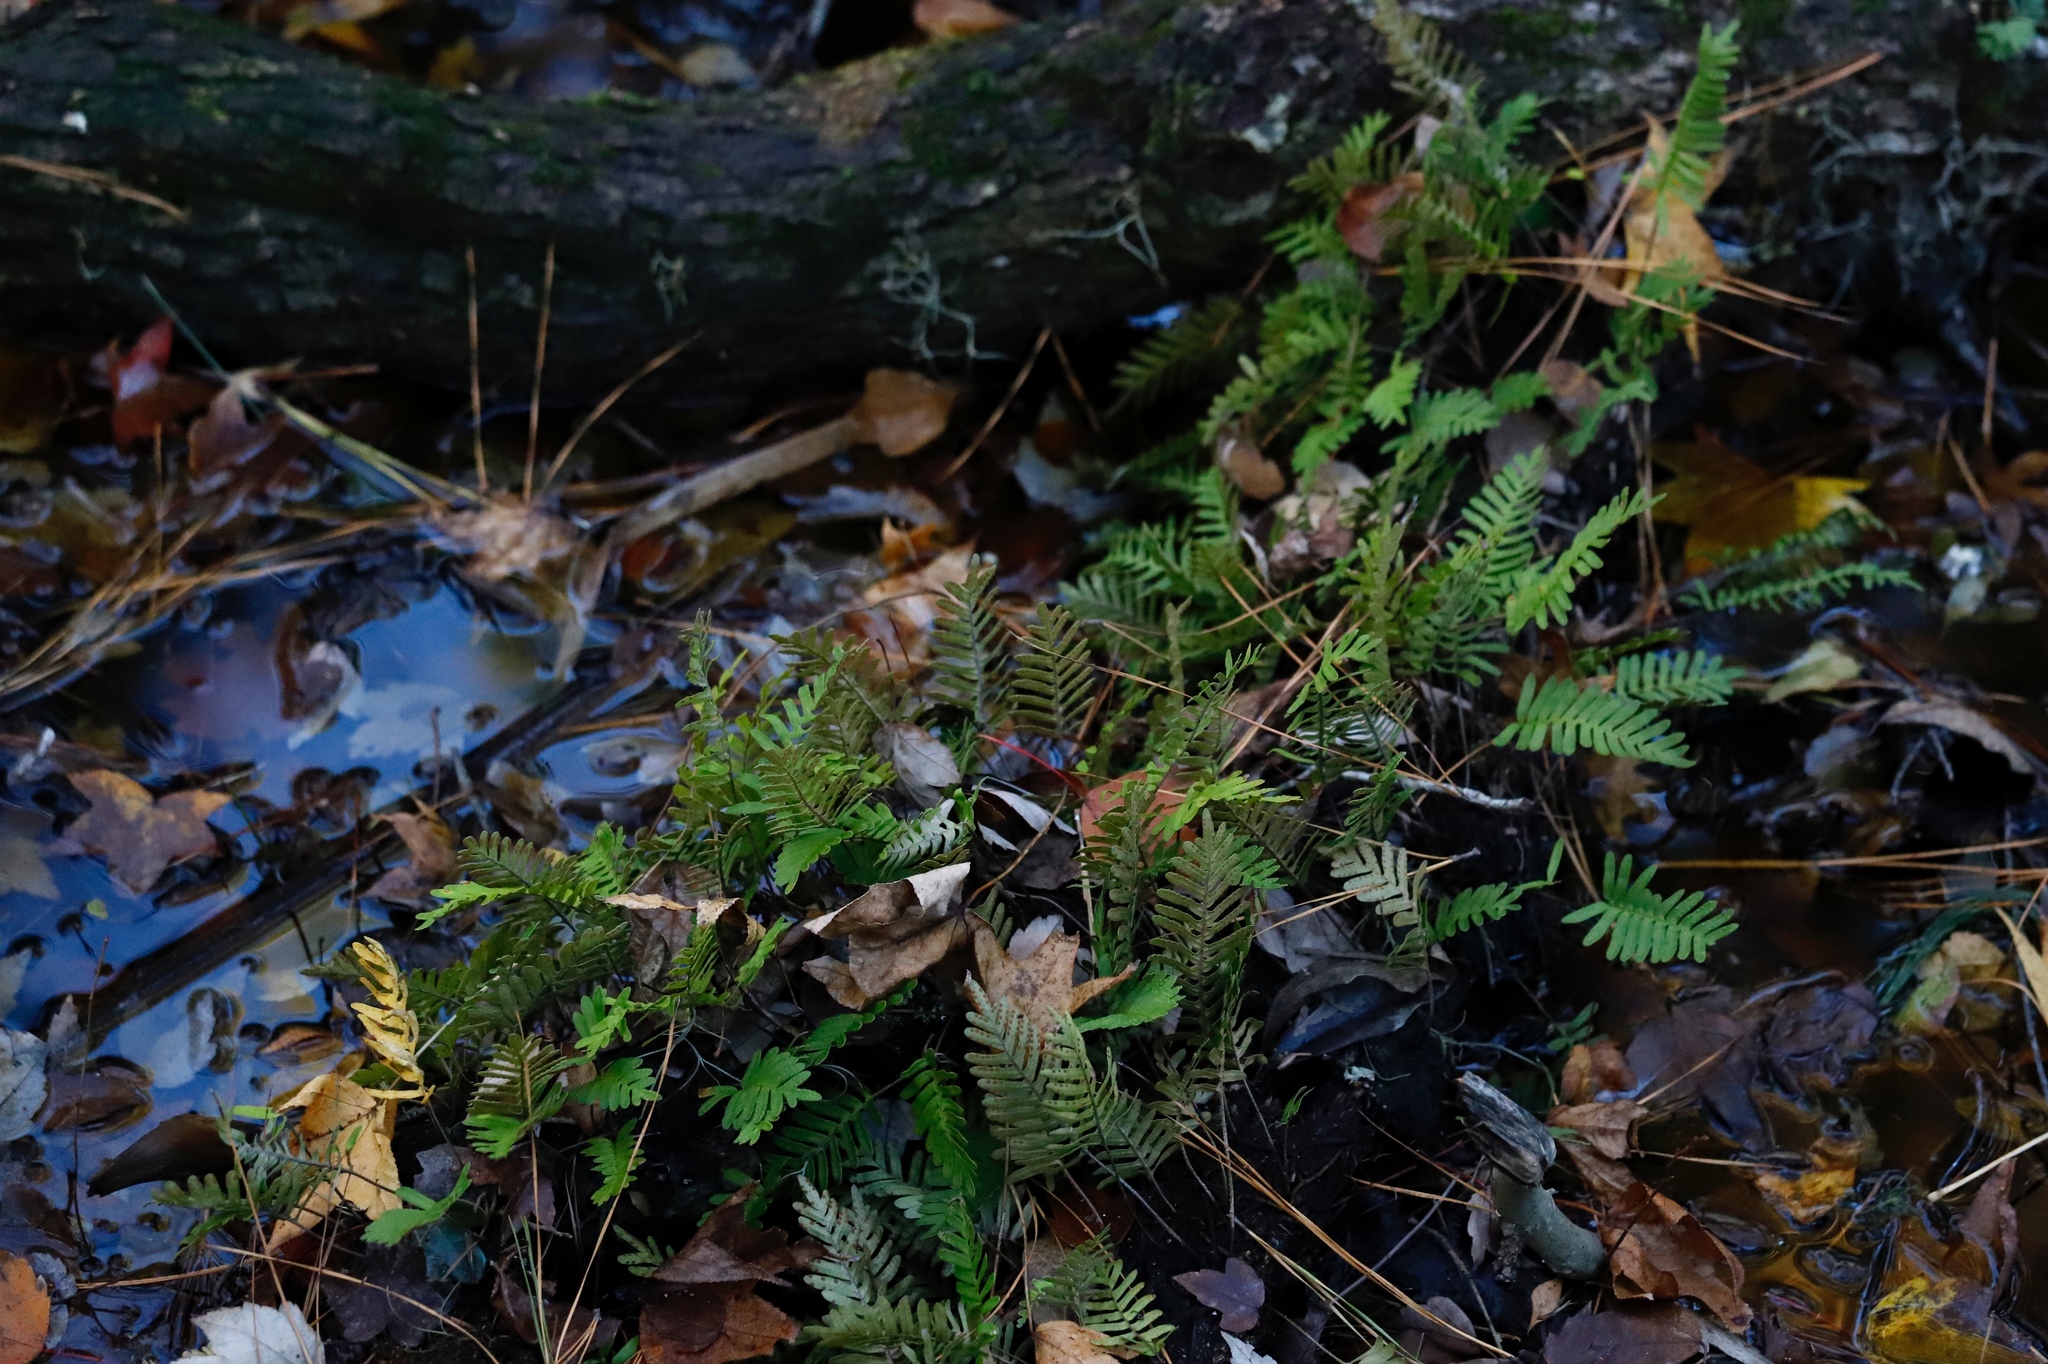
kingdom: Plantae
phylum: Tracheophyta
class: Polypodiopsida
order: Polypodiales
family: Polypodiaceae
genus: Pleopeltis
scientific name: Pleopeltis michauxiana
